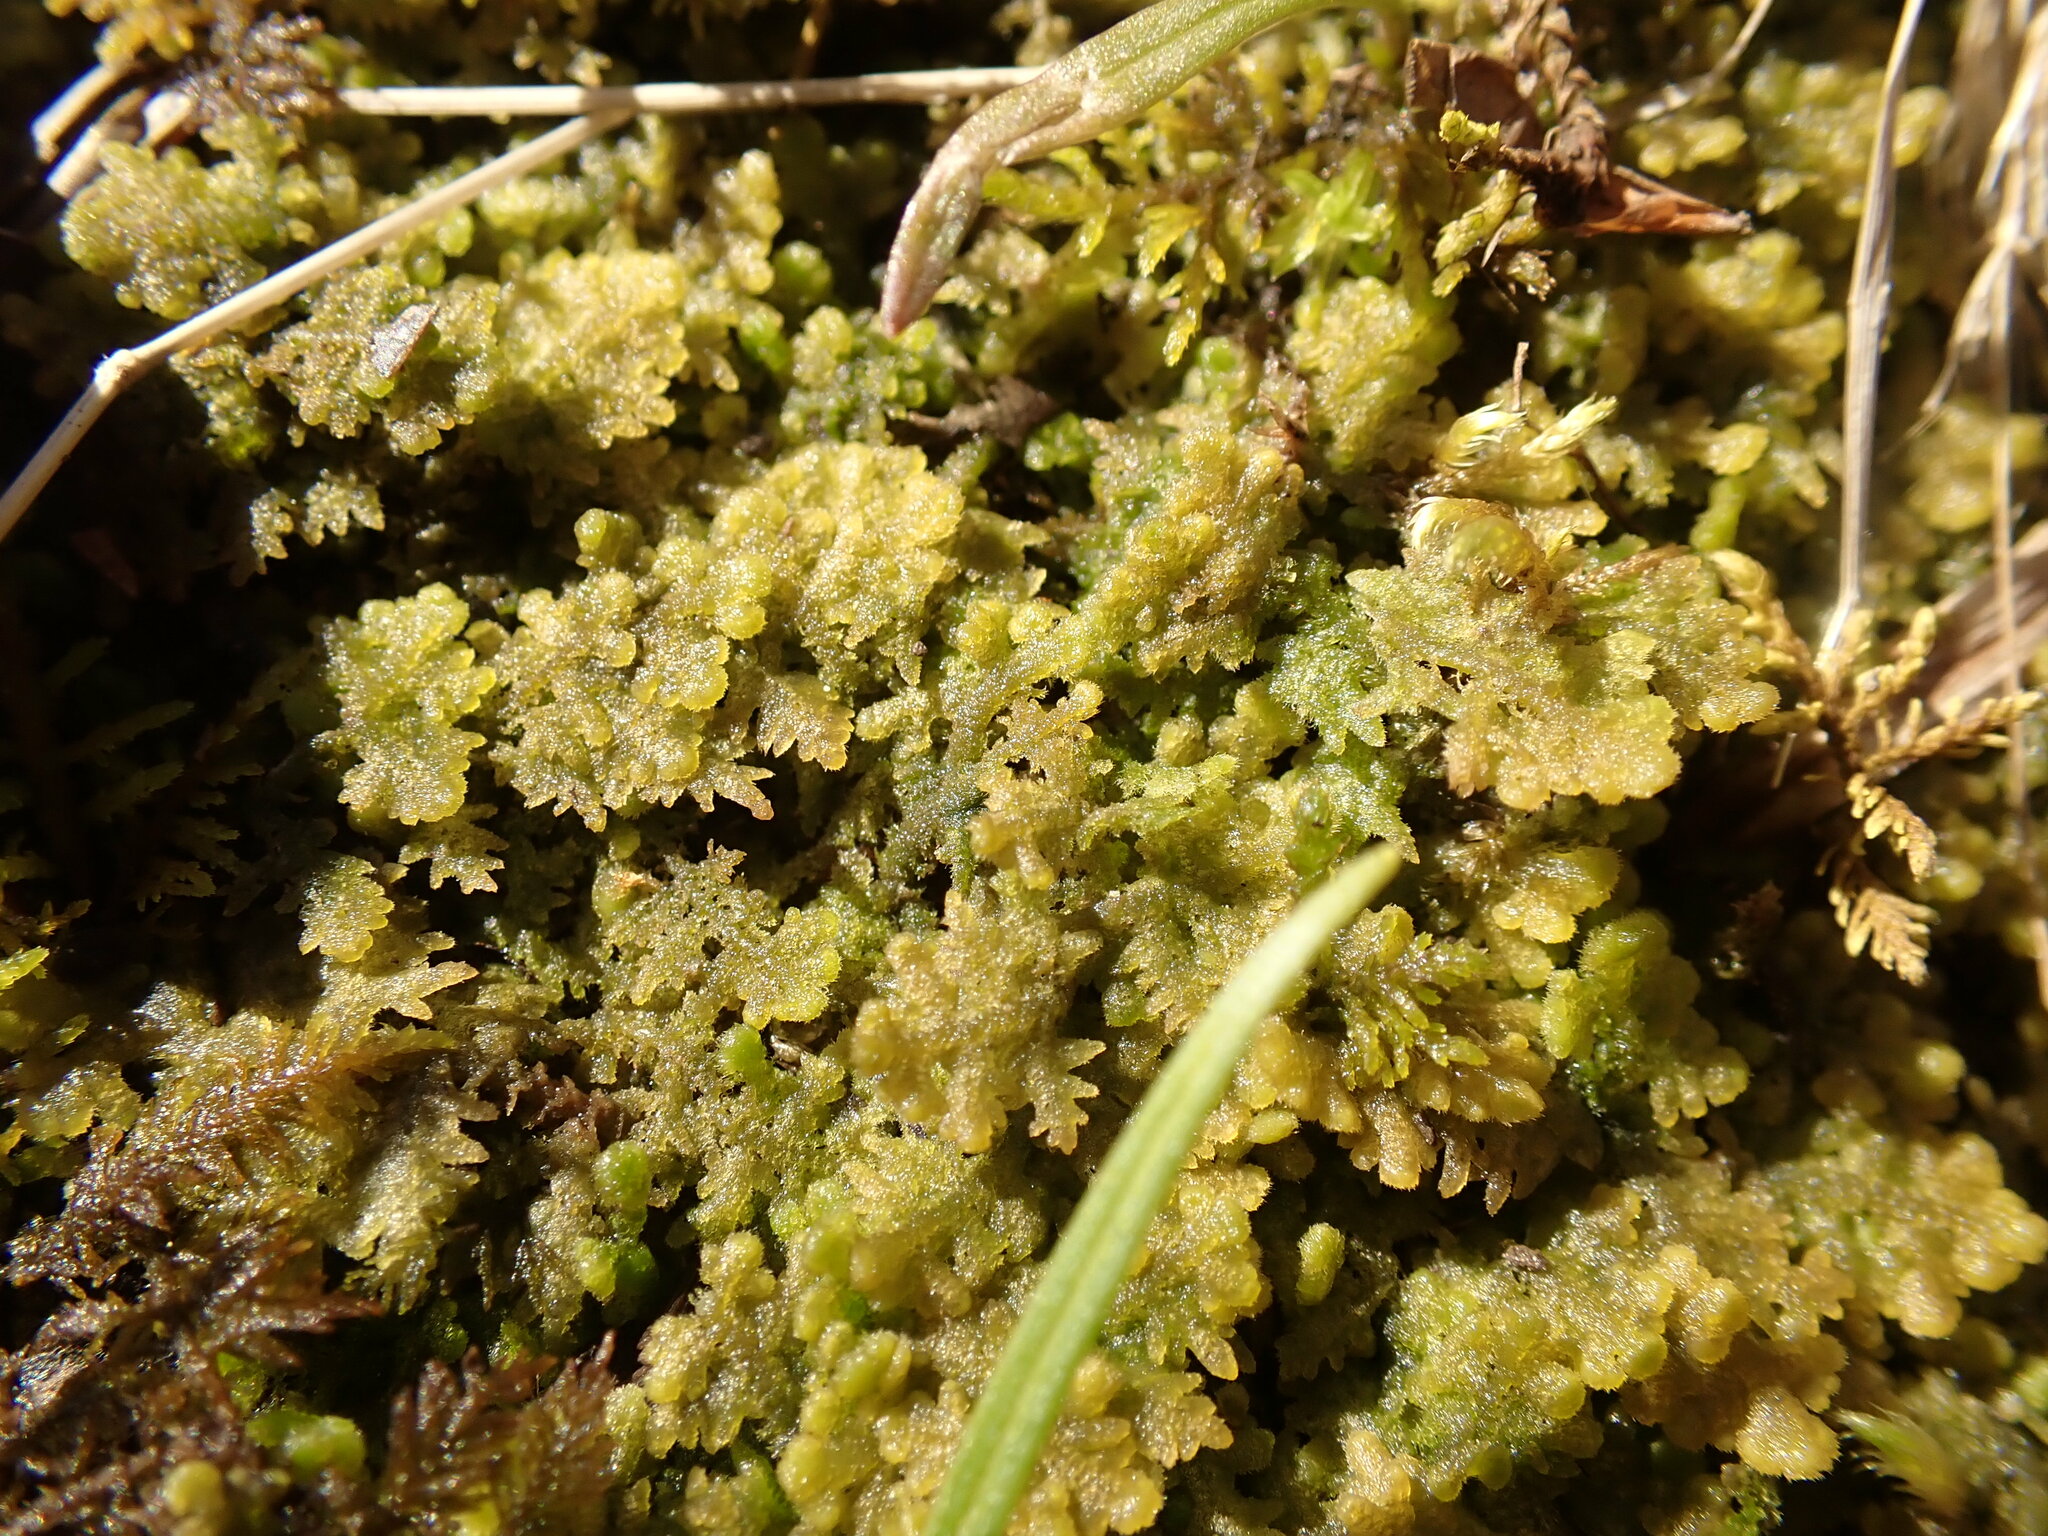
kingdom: Plantae
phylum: Marchantiophyta
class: Jungermanniopsida
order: Jungermanniales
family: Trichocoleaceae
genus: Trichocolea
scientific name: Trichocolea tomentella
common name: Woolly liverwort
